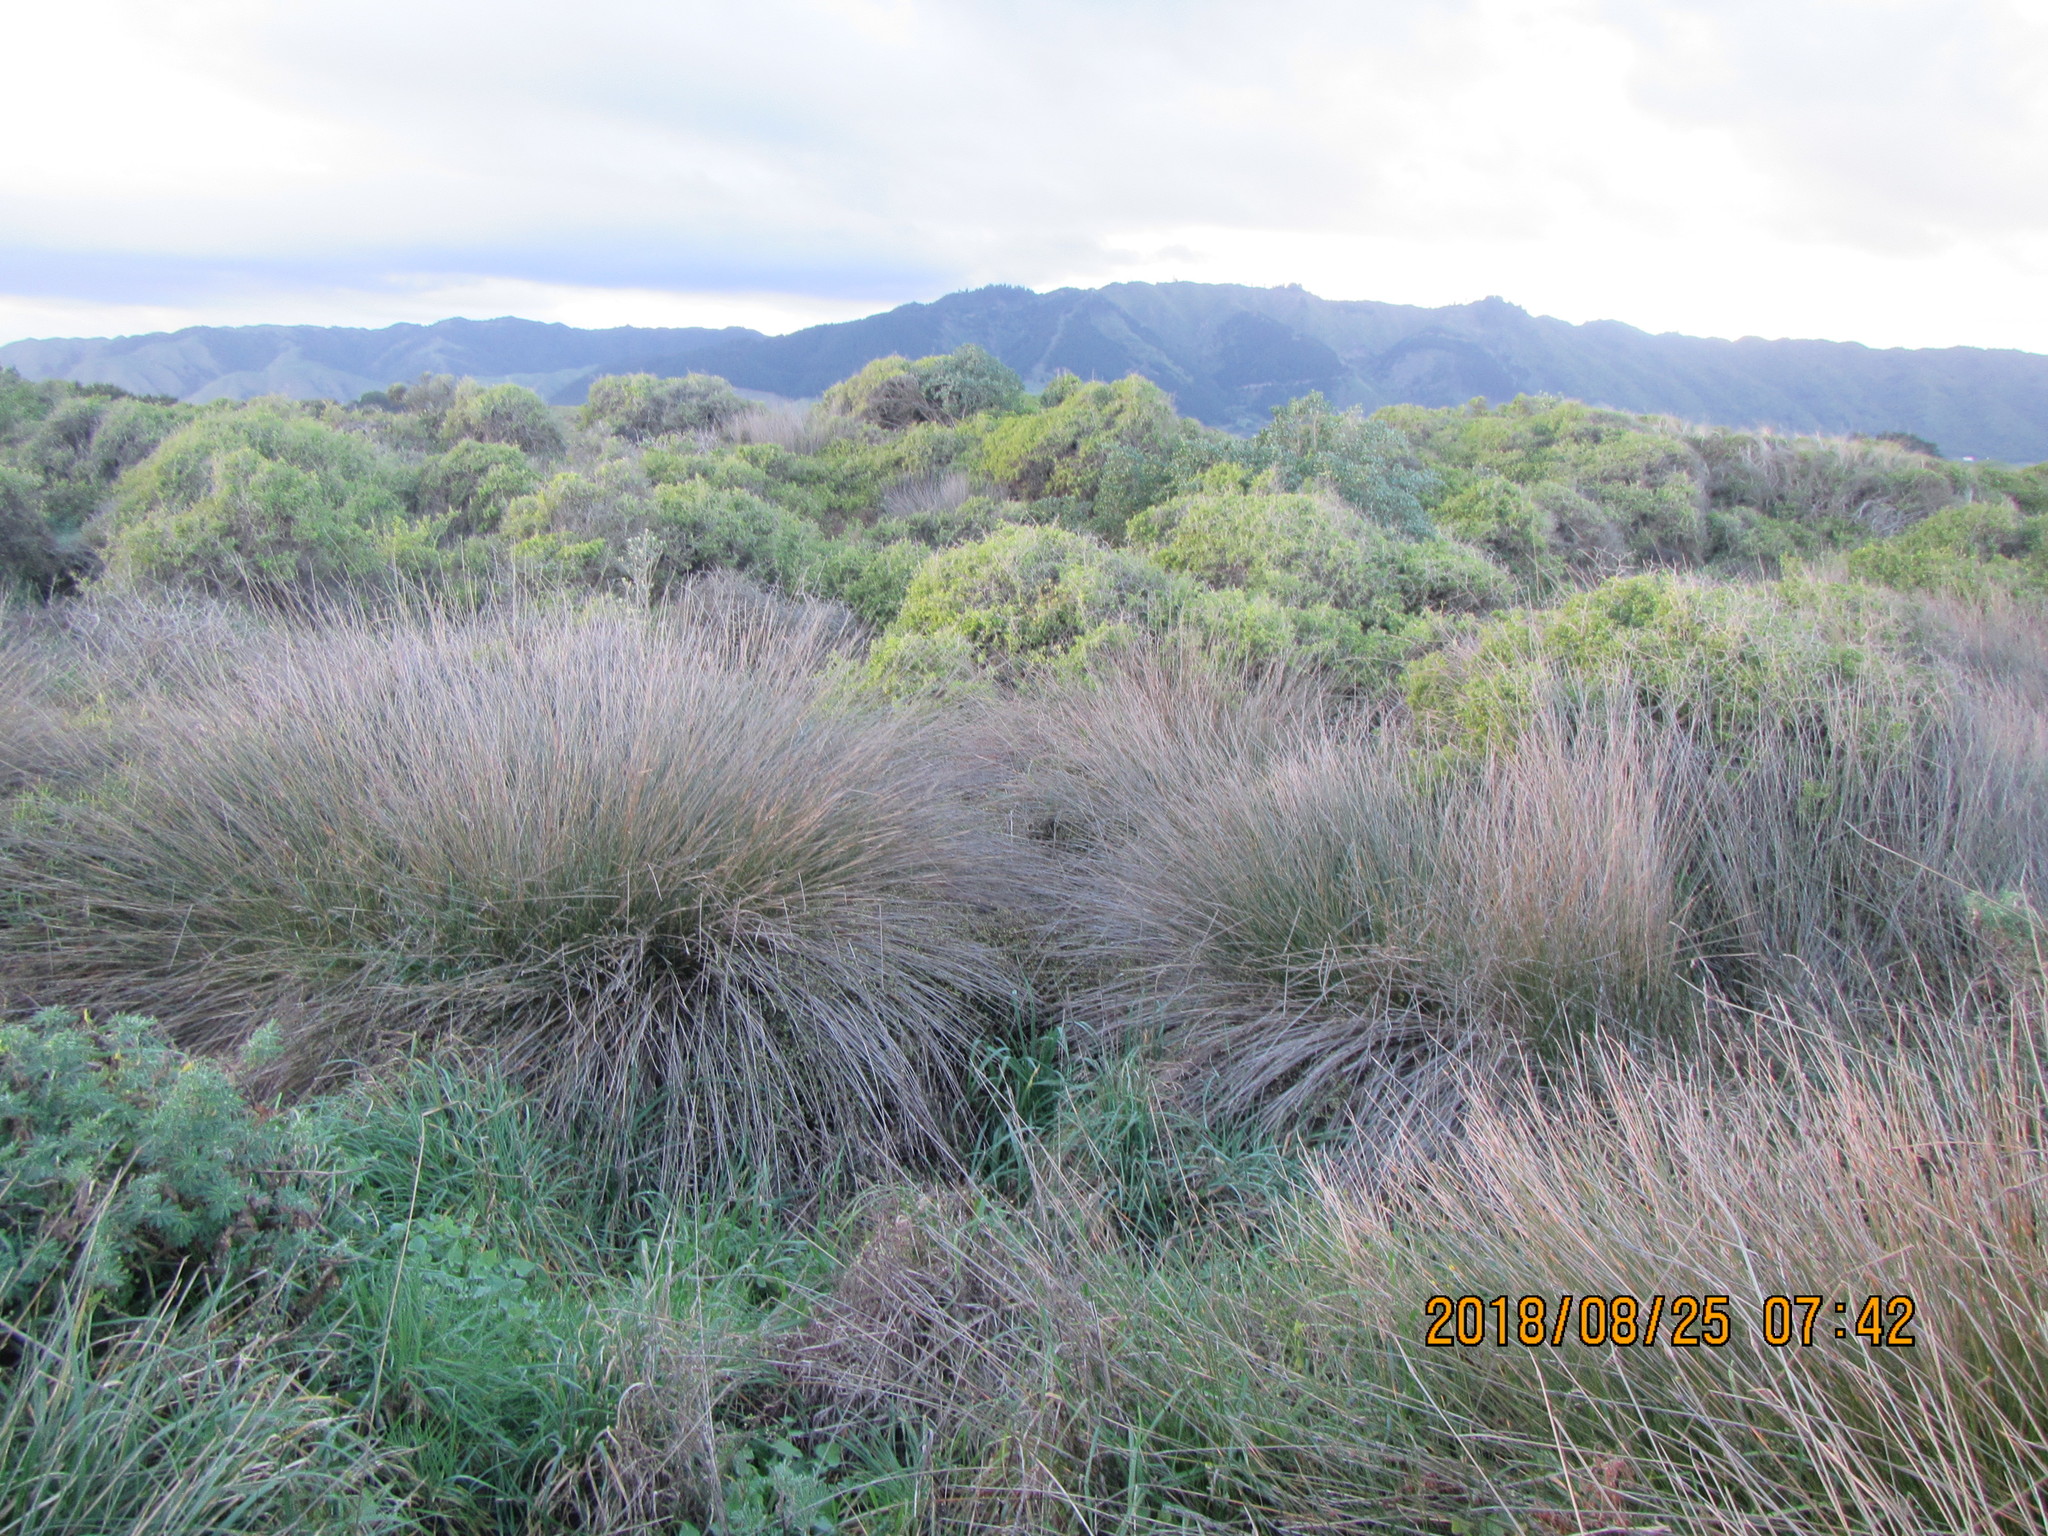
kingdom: Plantae
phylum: Tracheophyta
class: Liliopsida
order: Poales
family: Cyperaceae
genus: Ficinia
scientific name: Ficinia nodosa
